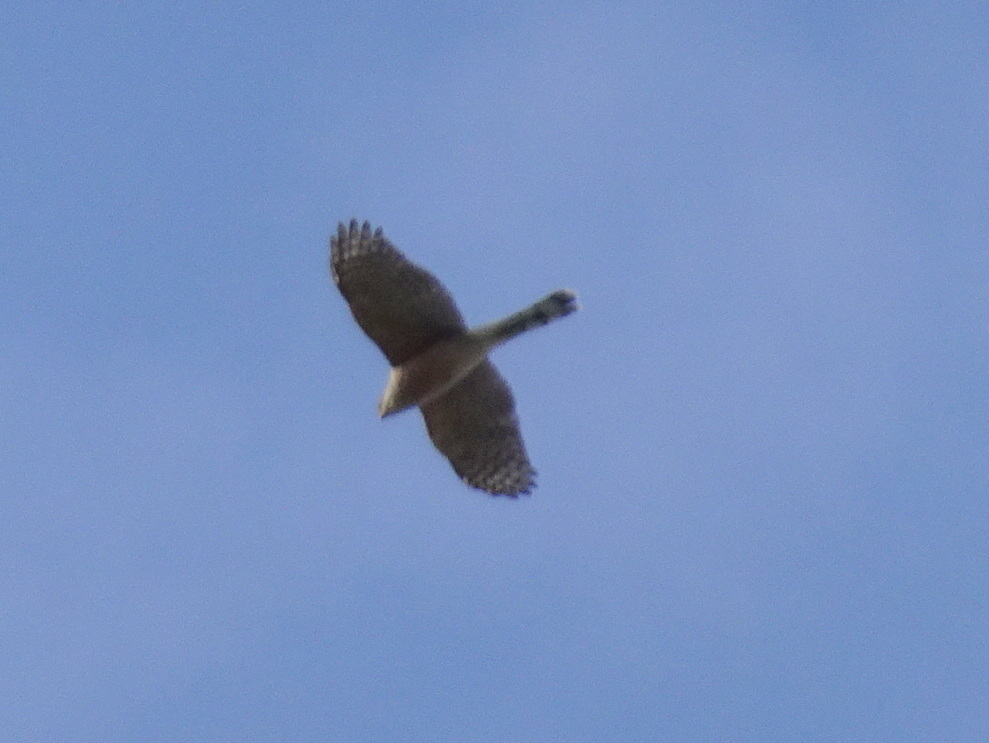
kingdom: Animalia
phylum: Chordata
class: Aves
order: Accipitriformes
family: Accipitridae
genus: Accipiter
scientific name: Accipiter cooperii
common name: Cooper's hawk
